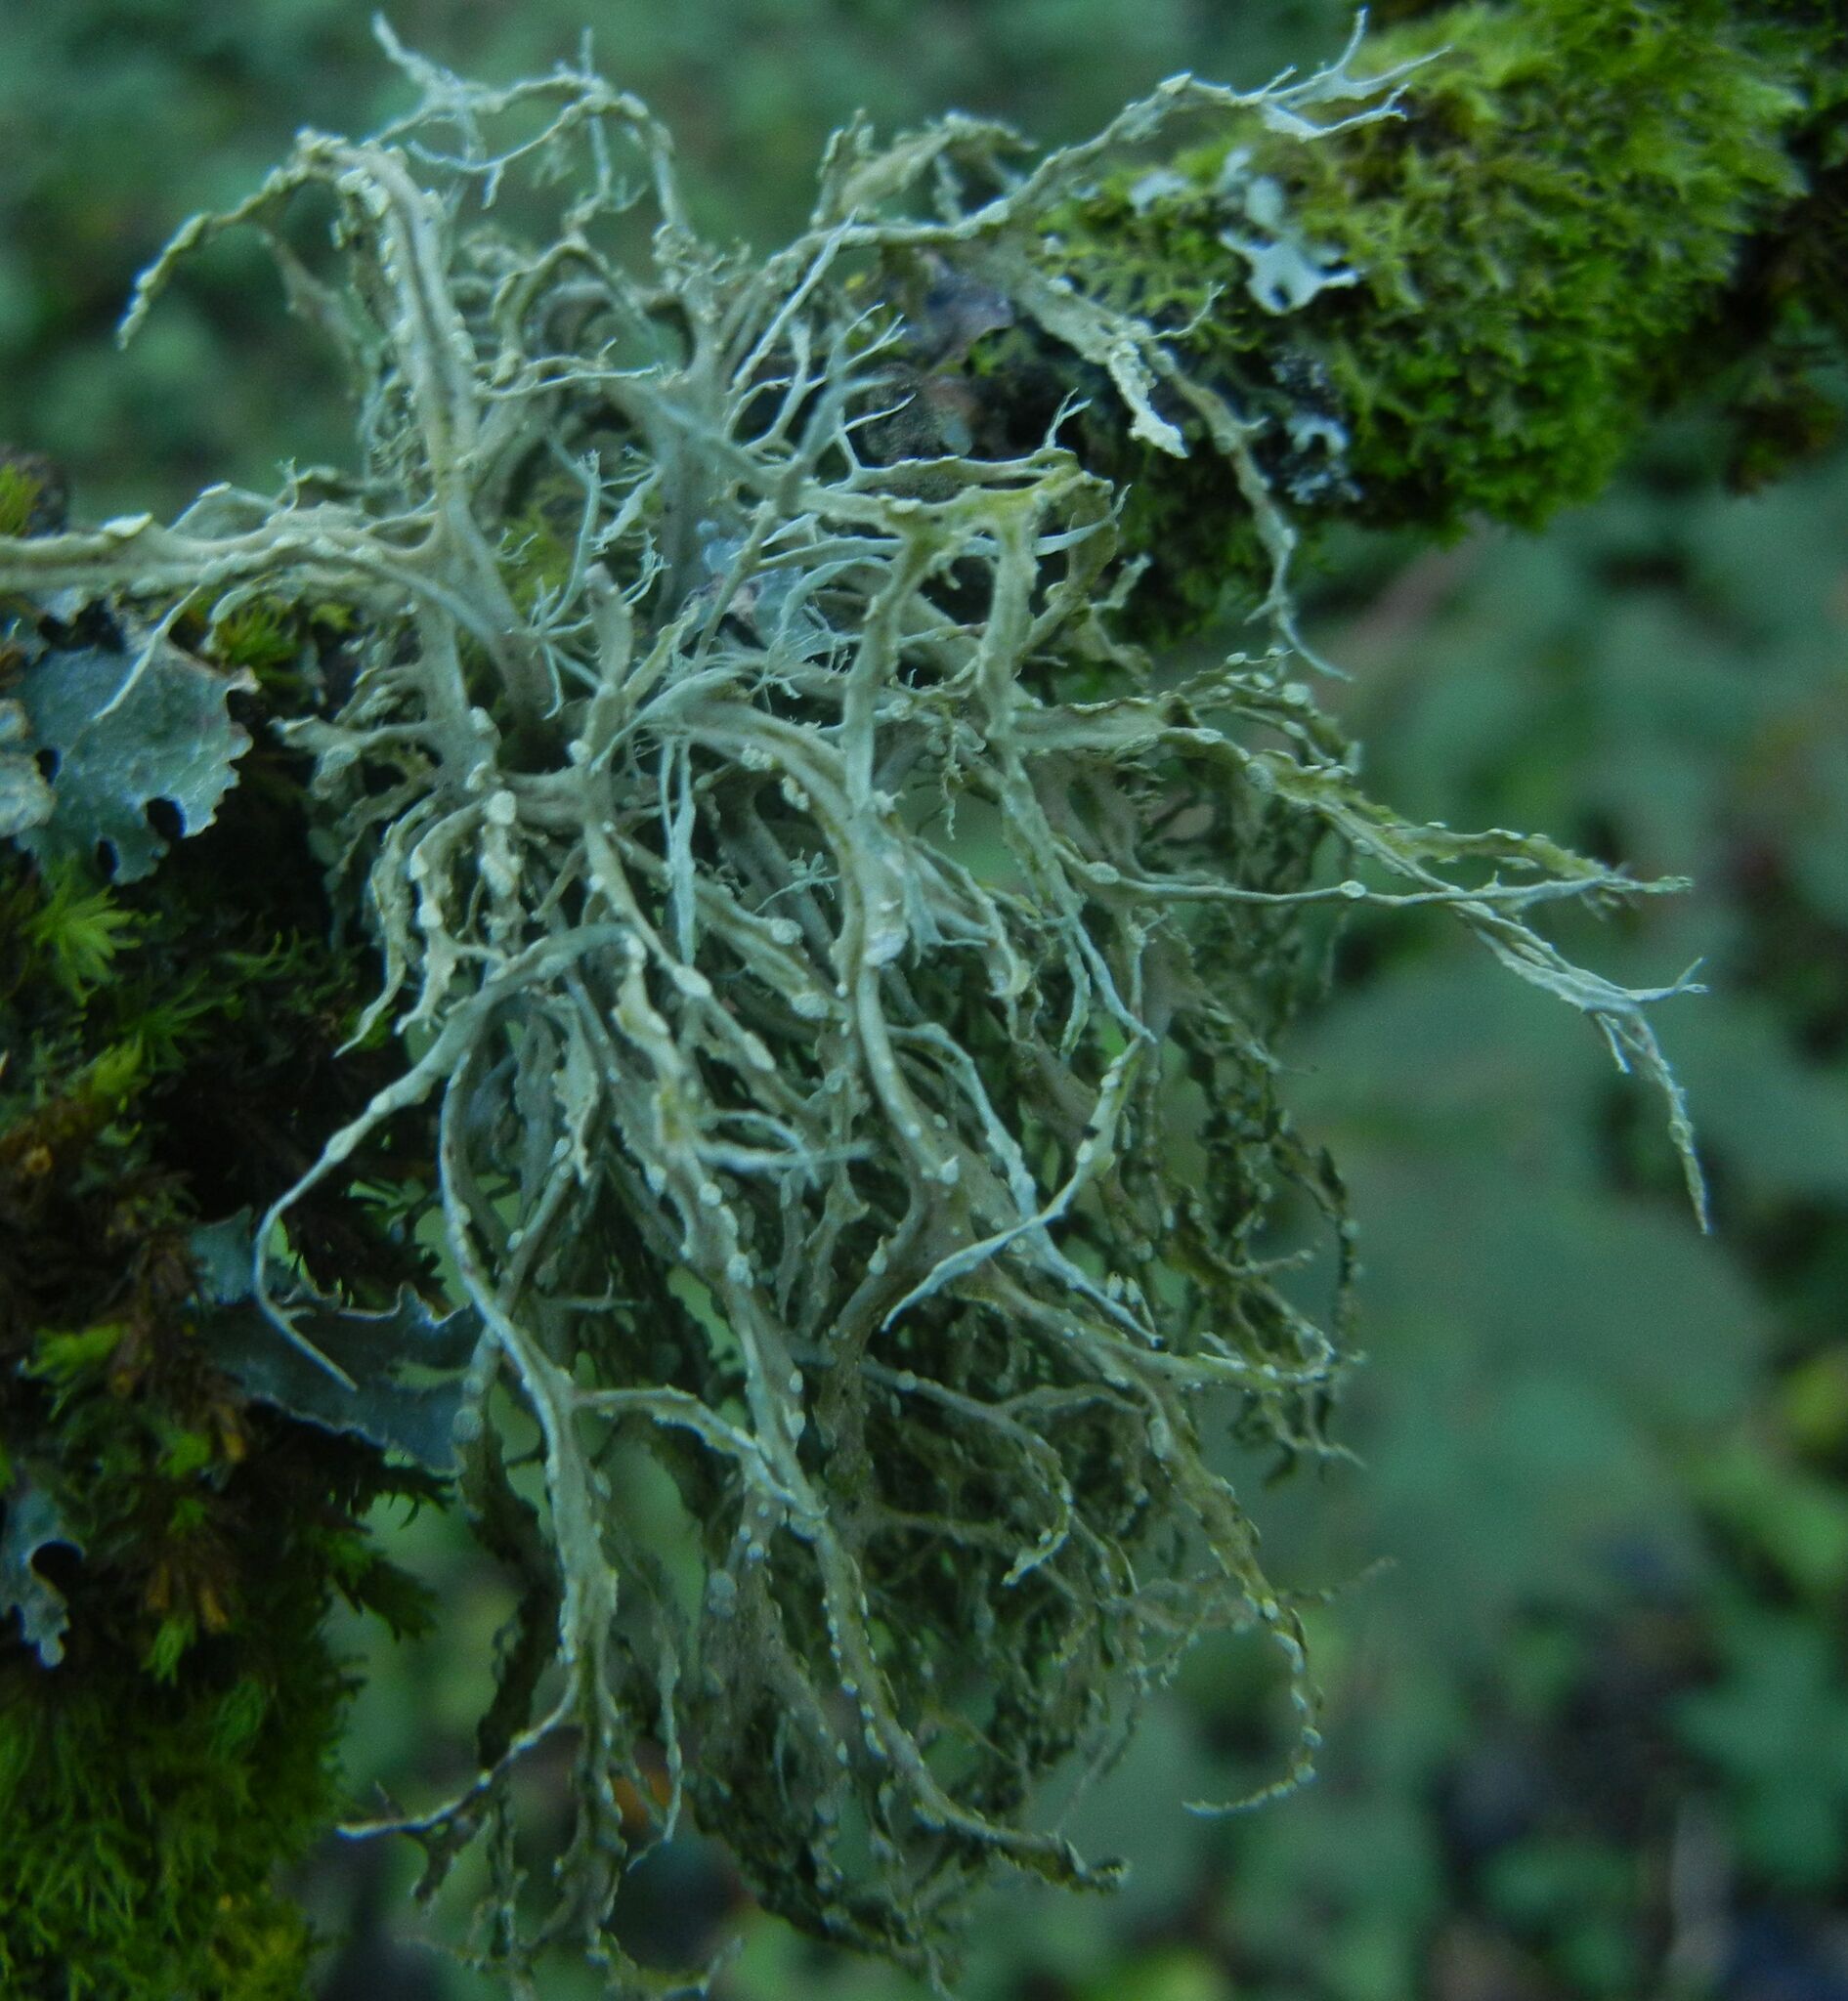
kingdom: Fungi
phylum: Ascomycota
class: Lecanoromycetes
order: Lecanorales
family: Ramalinaceae
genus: Ramalina
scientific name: Ramalina farinacea
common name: Farinose cartilage lichen
